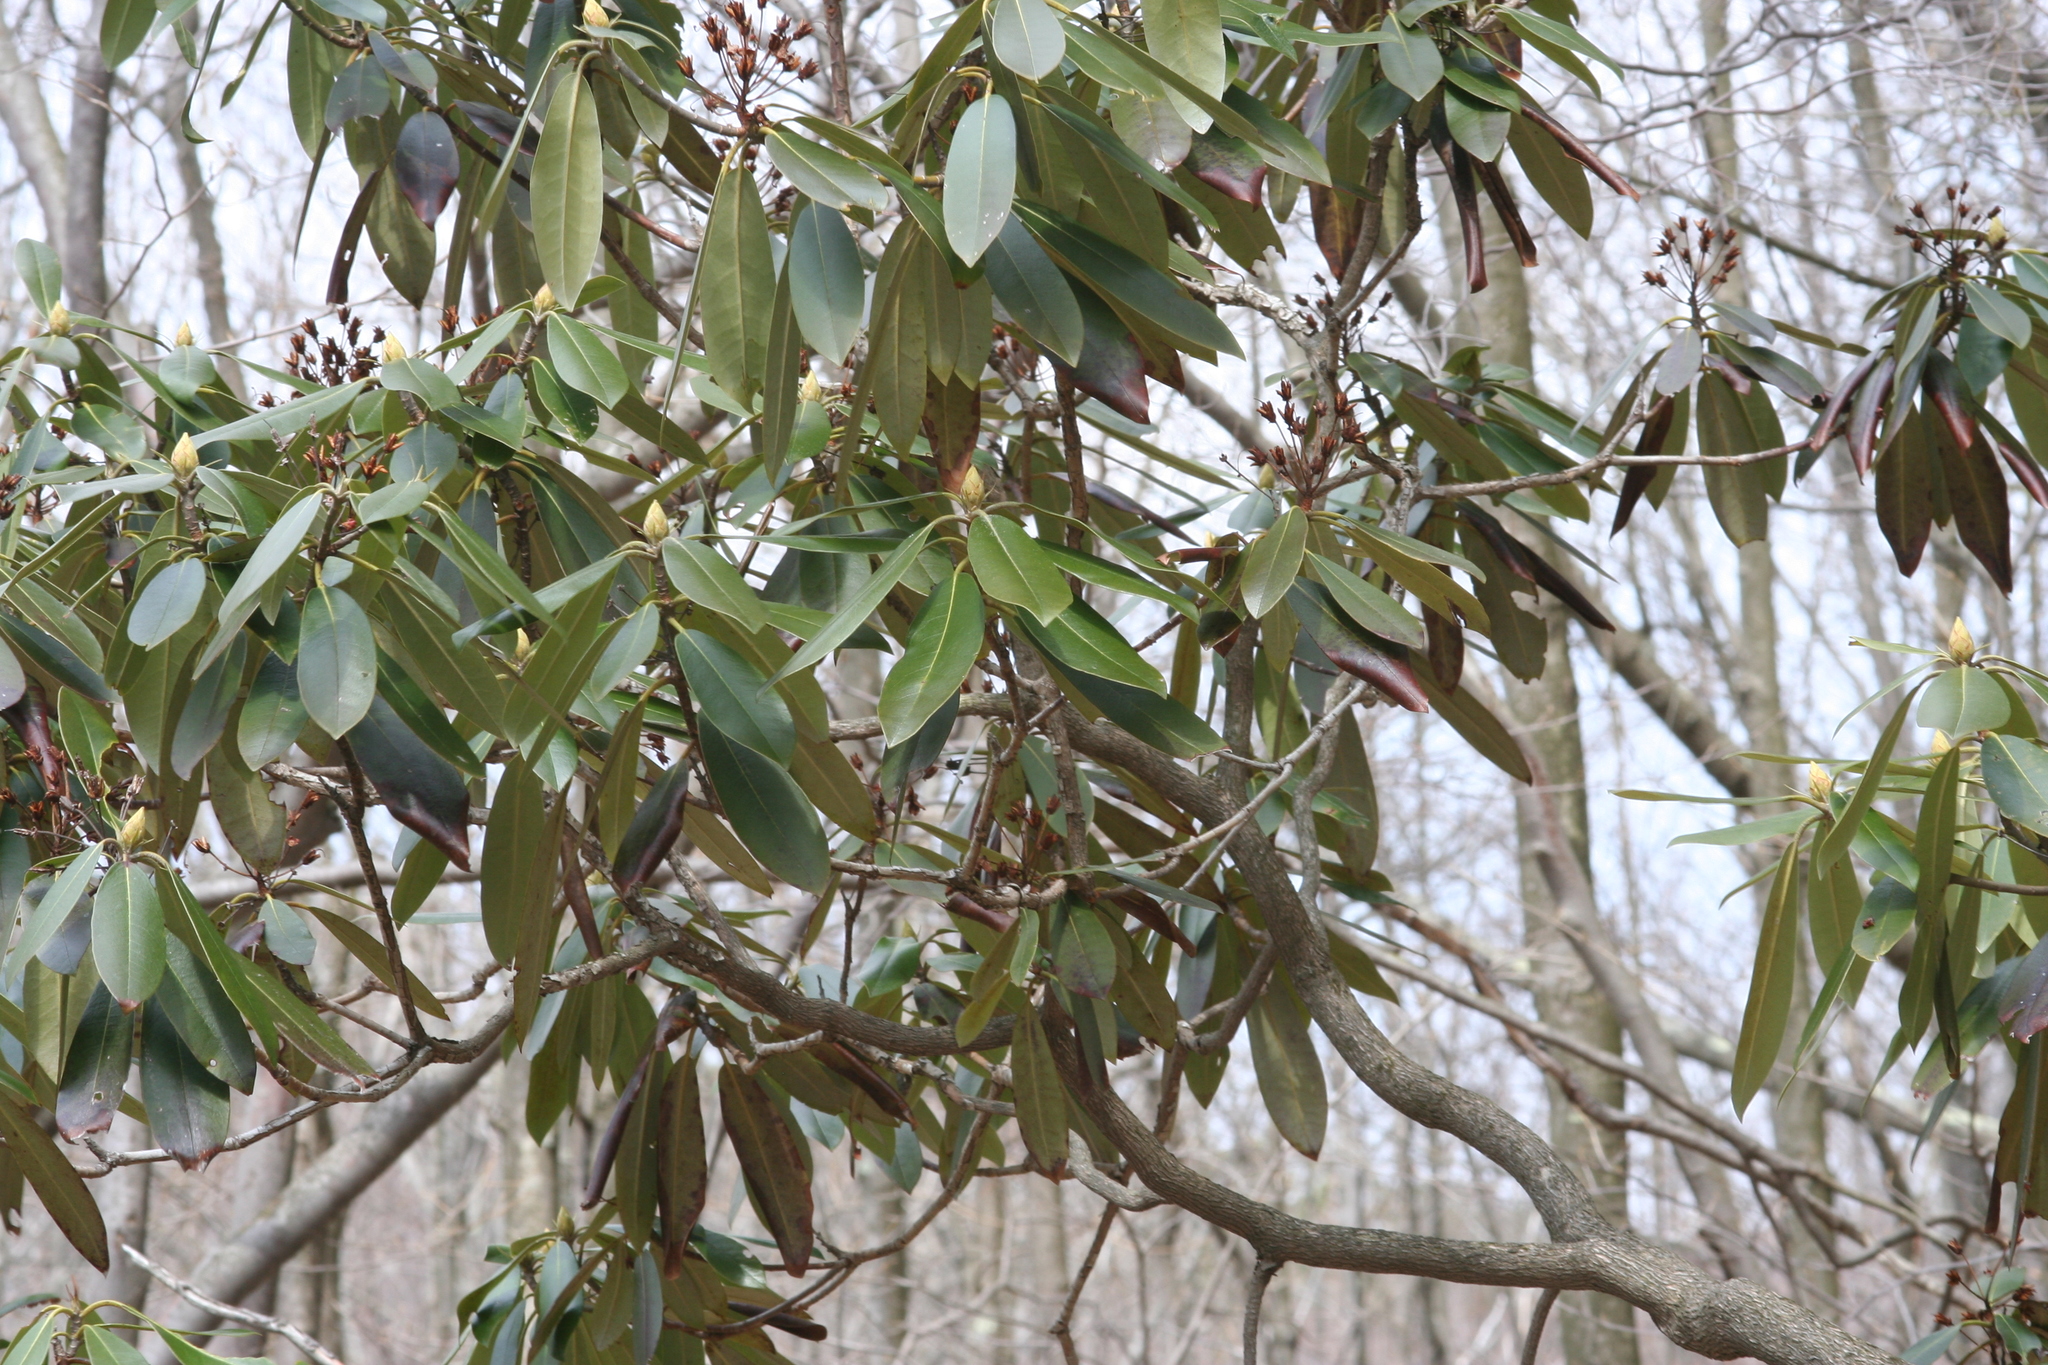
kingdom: Plantae
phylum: Tracheophyta
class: Magnoliopsida
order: Ericales
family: Ericaceae
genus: Rhododendron
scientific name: Rhododendron maximum
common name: Great rhododendron
